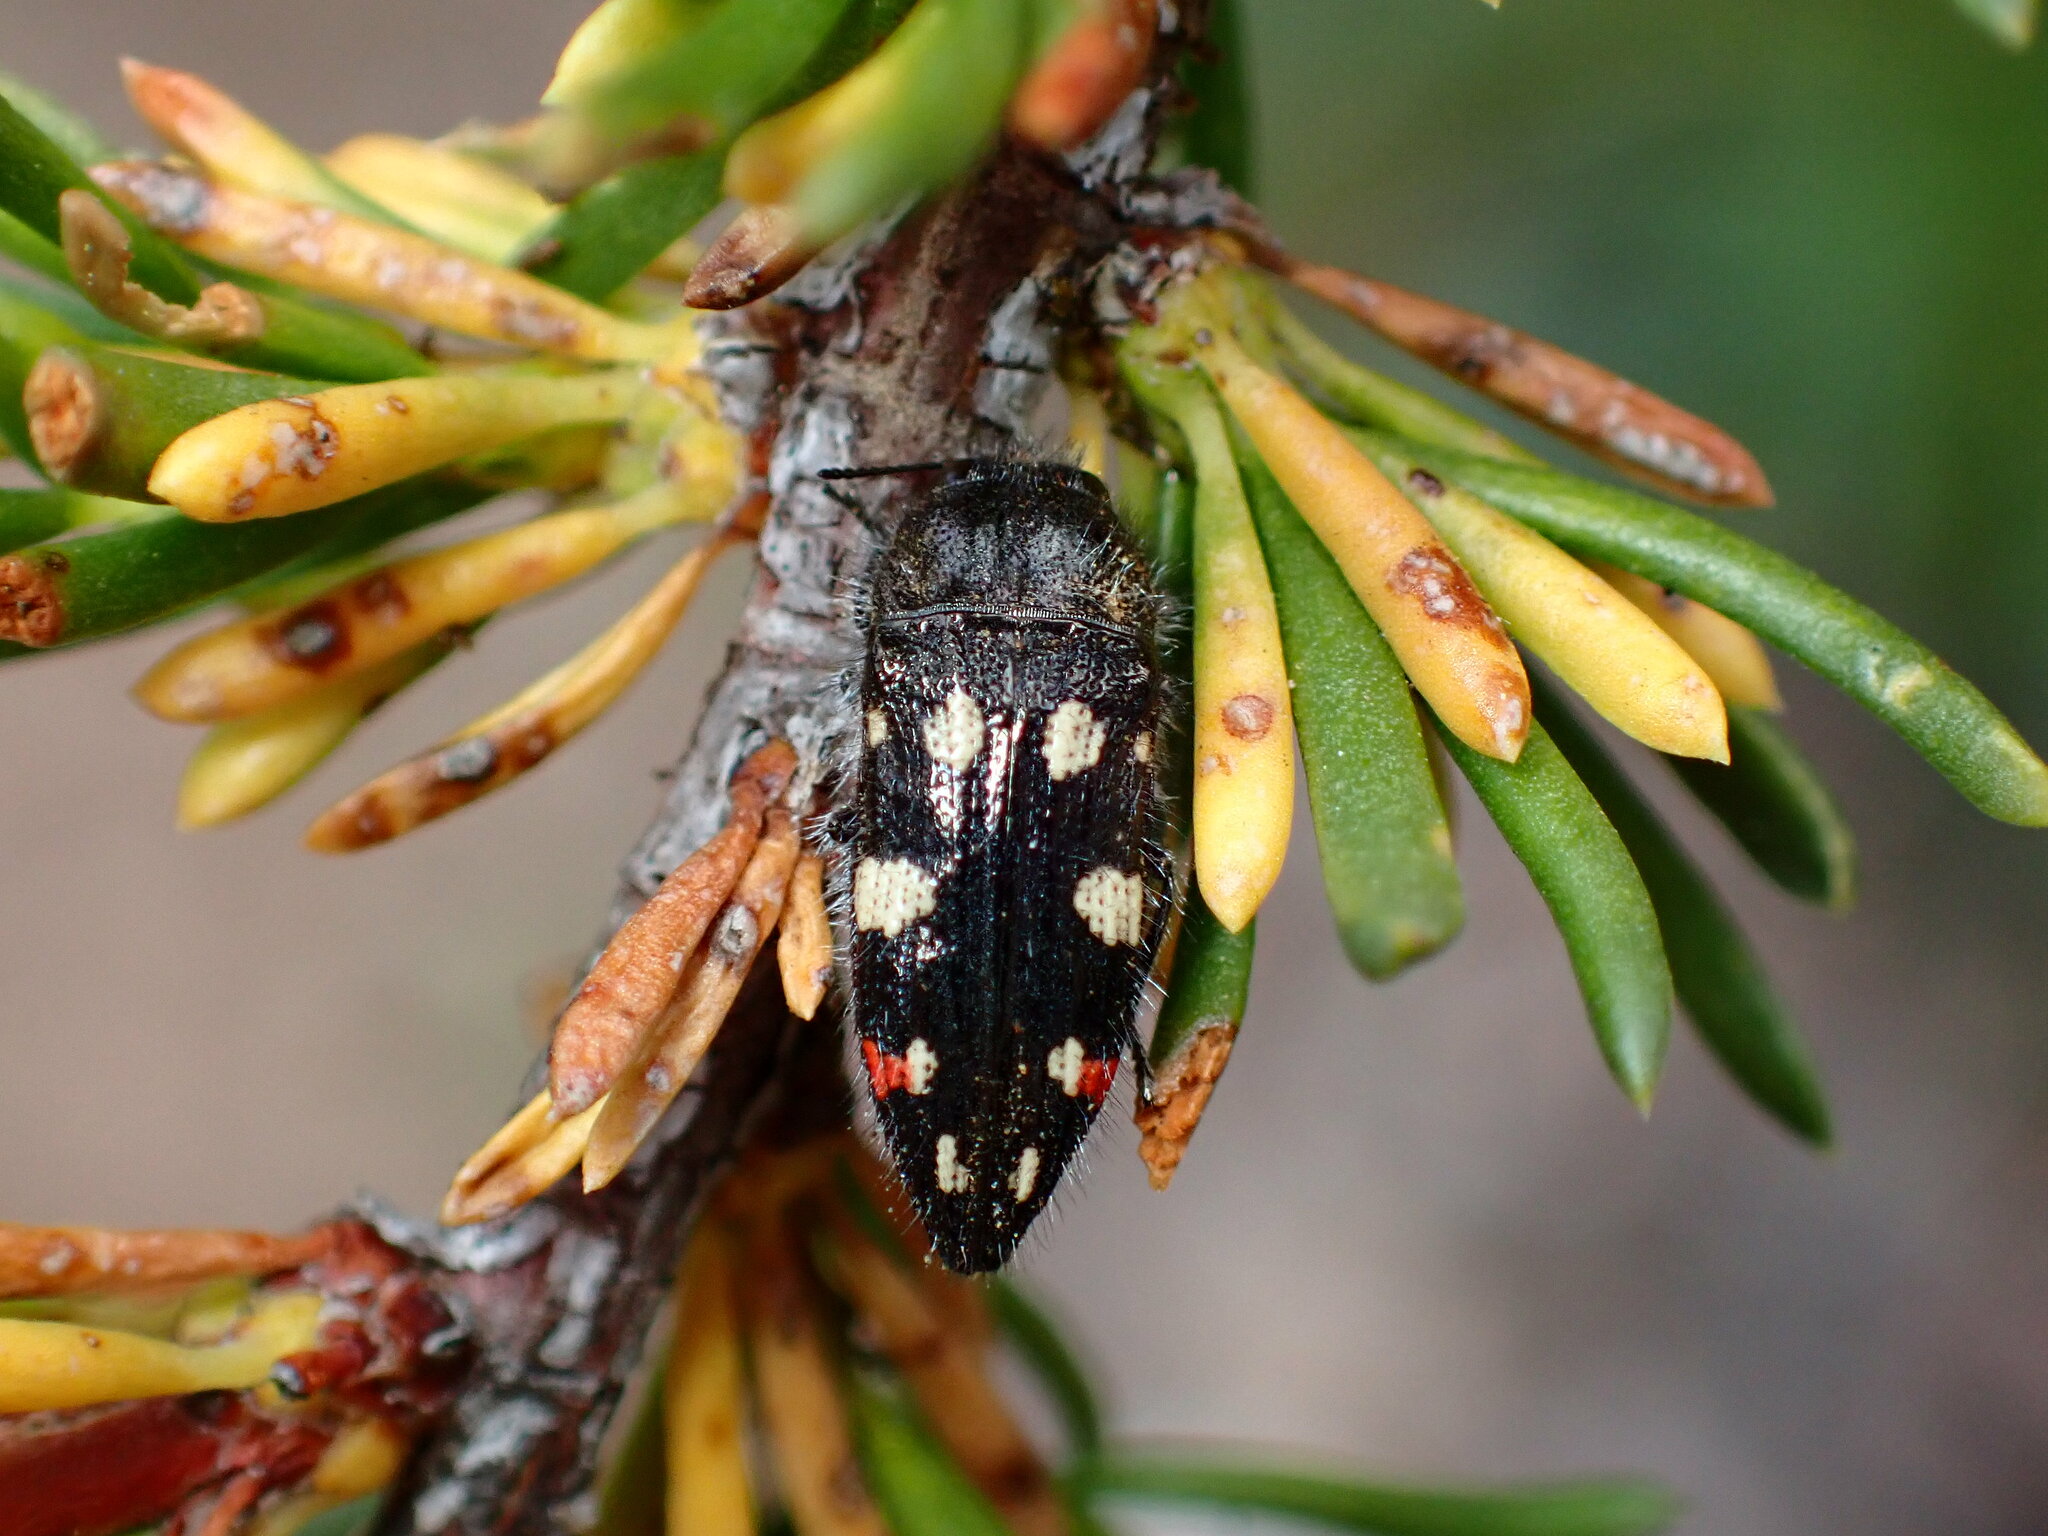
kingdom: Animalia
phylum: Arthropoda
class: Insecta
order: Coleoptera
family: Buprestidae
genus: Acmaeodera
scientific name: Acmaeodera adenostomae
